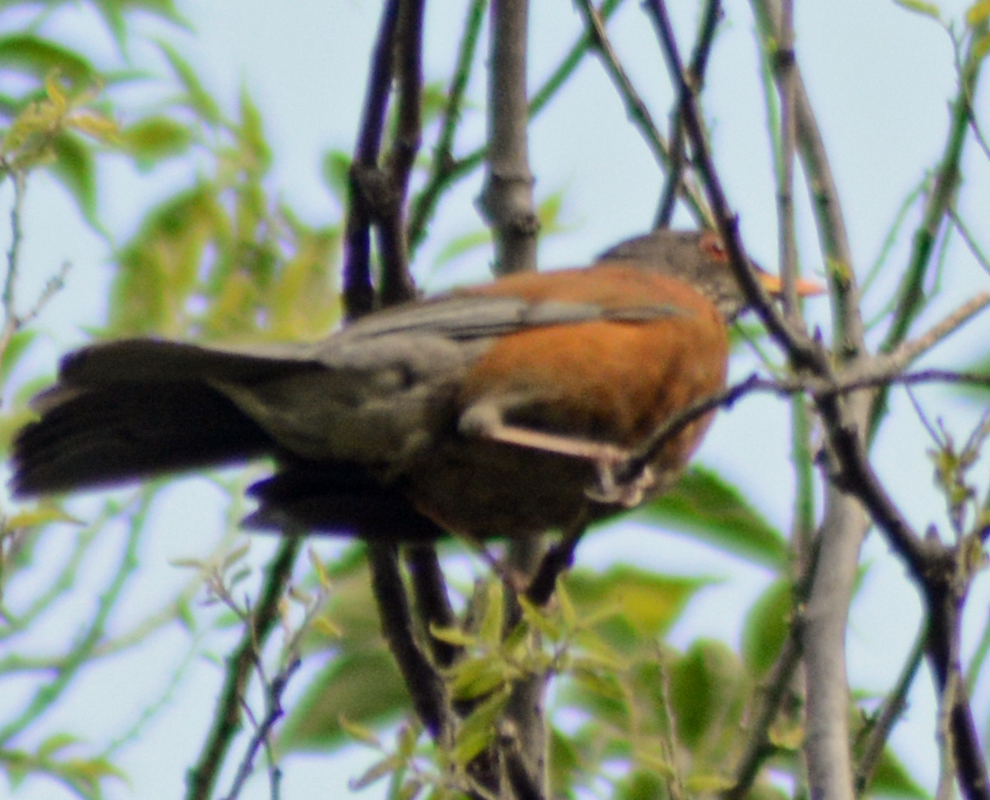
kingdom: Animalia
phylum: Chordata
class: Aves
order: Passeriformes
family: Turdidae
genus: Turdus
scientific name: Turdus rufopalliatus
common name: Rufous-backed robin
